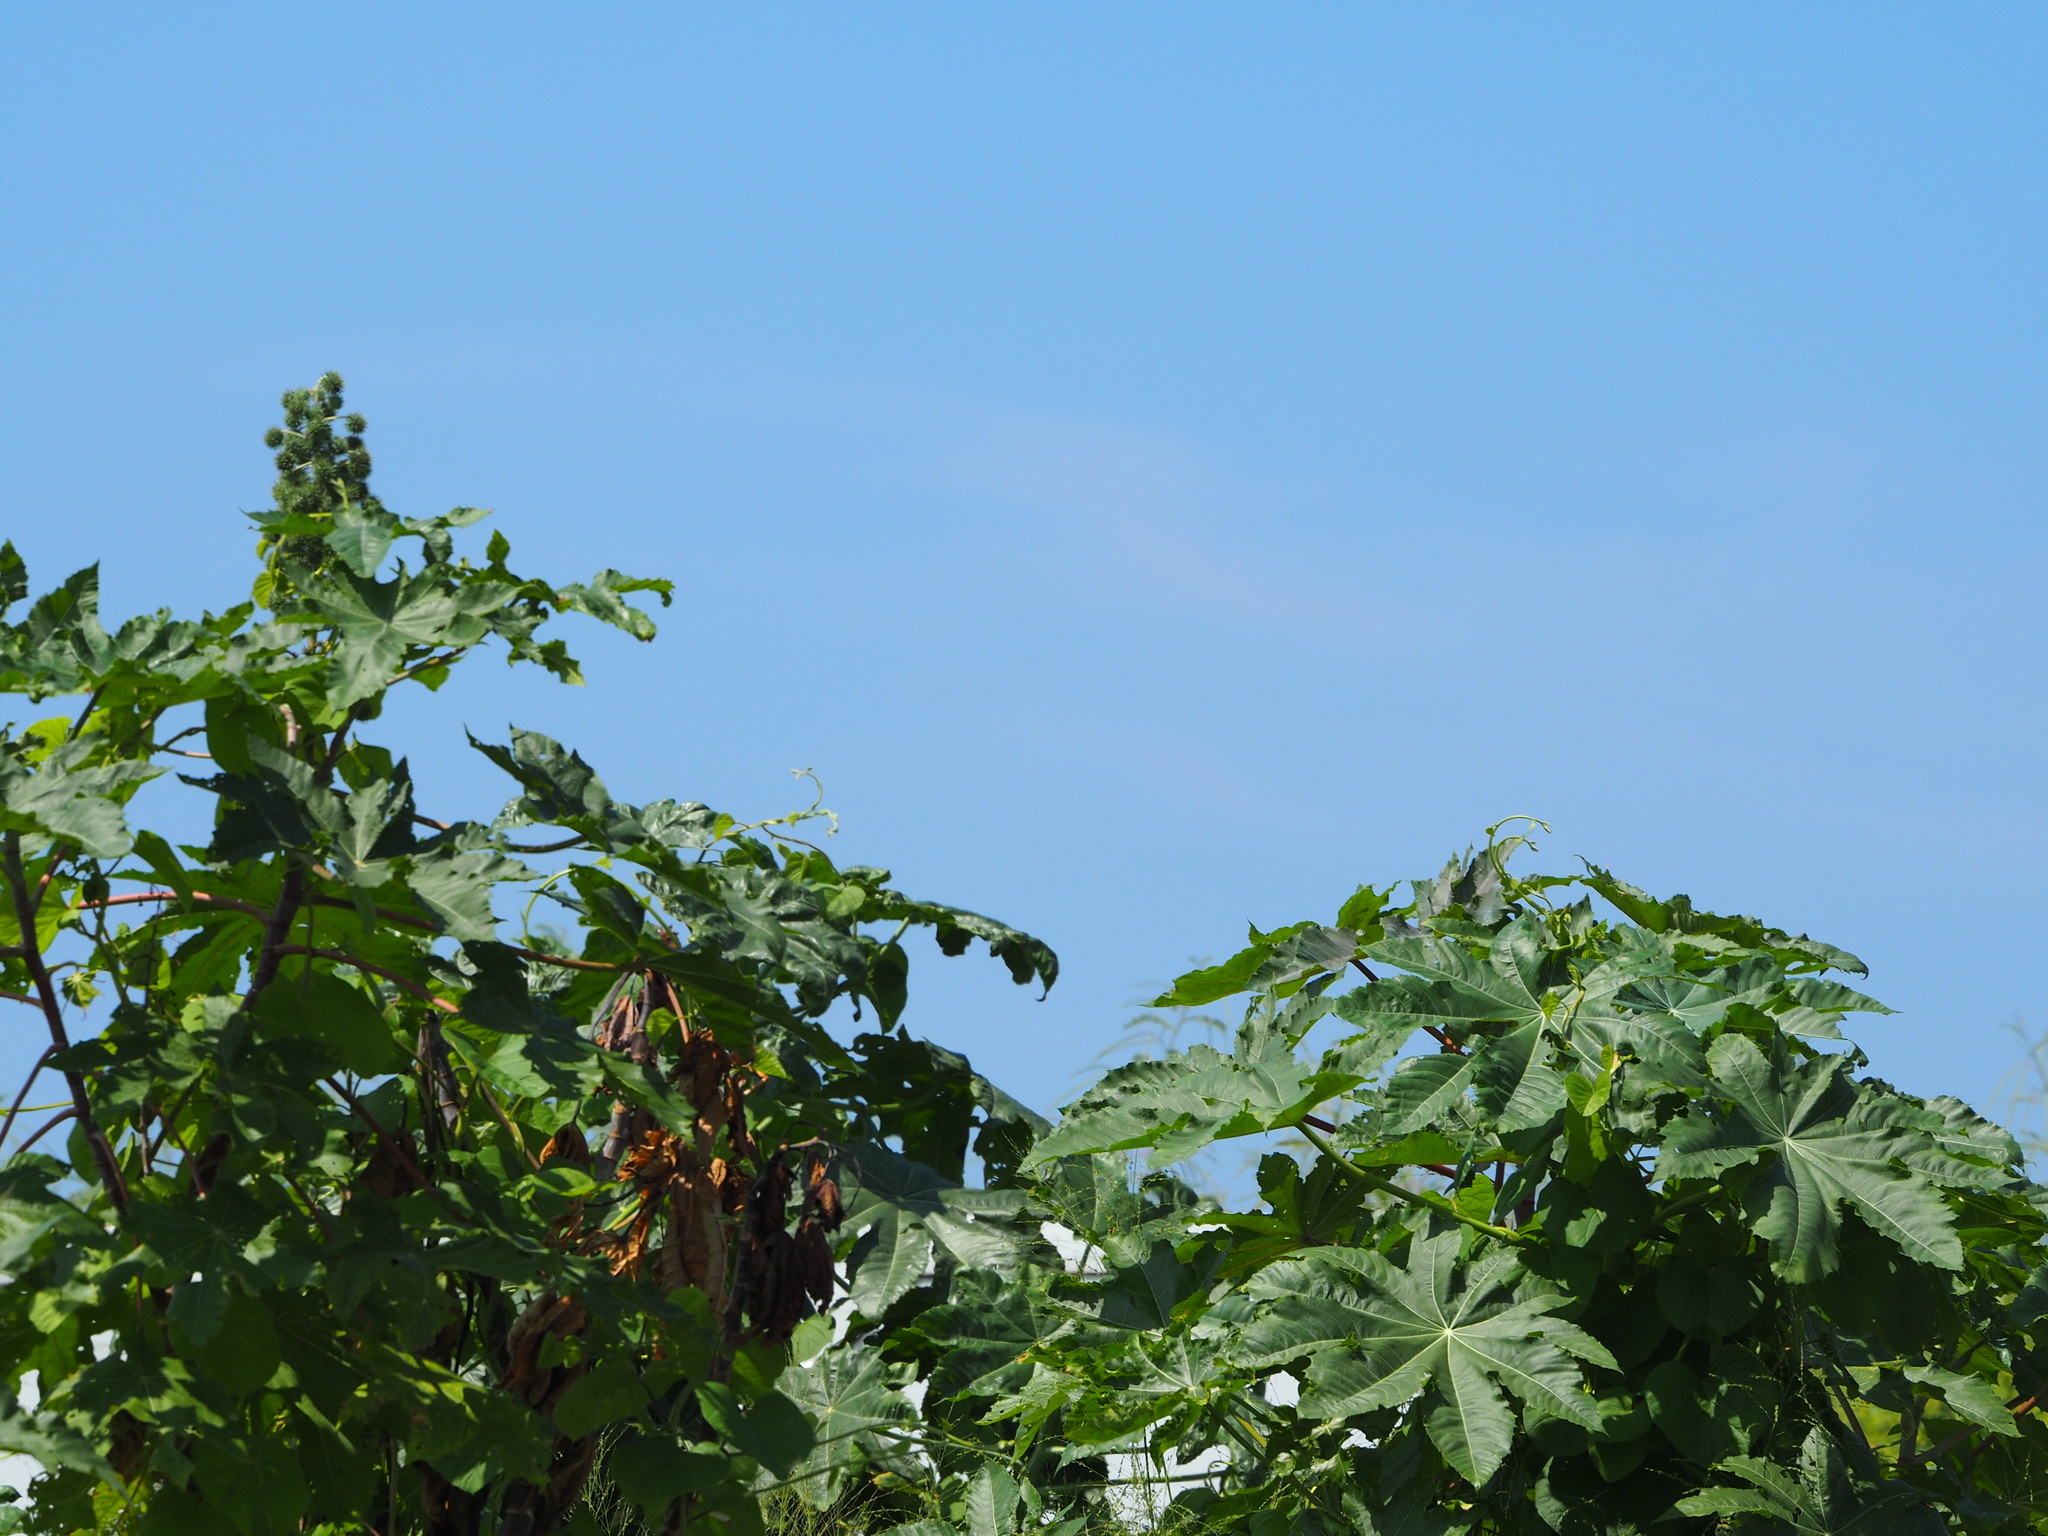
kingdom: Plantae
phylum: Tracheophyta
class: Magnoliopsida
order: Malpighiales
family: Euphorbiaceae
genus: Ricinus
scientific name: Ricinus communis
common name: Castor-oil-plant
